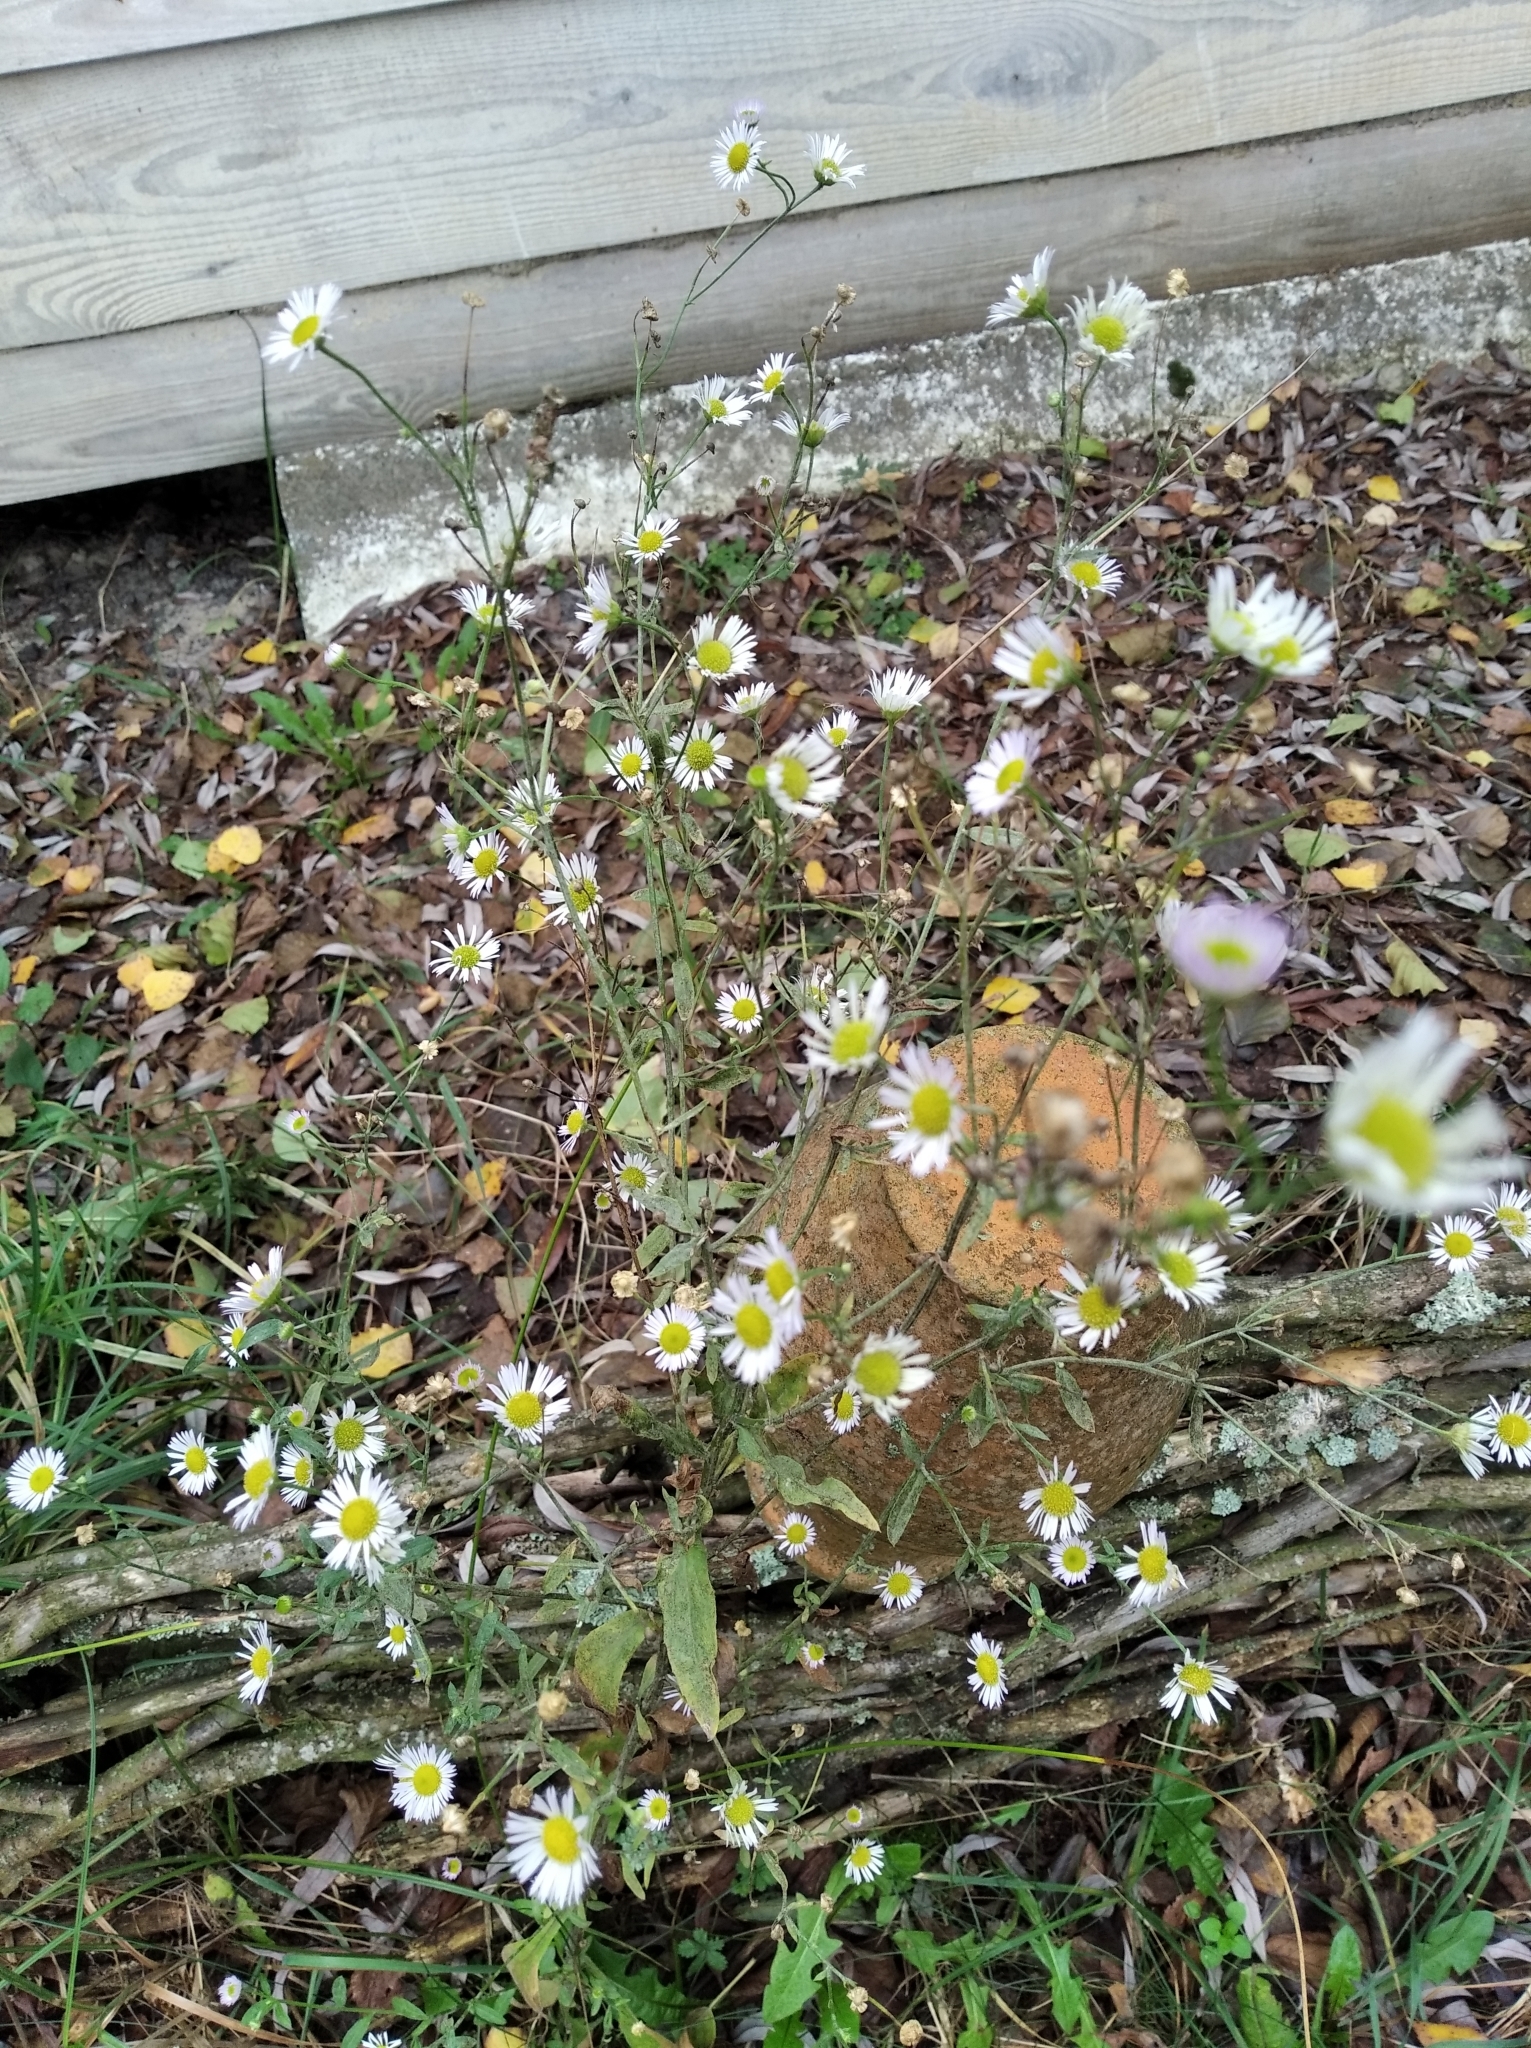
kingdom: Plantae
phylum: Tracheophyta
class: Magnoliopsida
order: Asterales
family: Asteraceae
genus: Erigeron
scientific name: Erigeron annuus
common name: Tall fleabane
